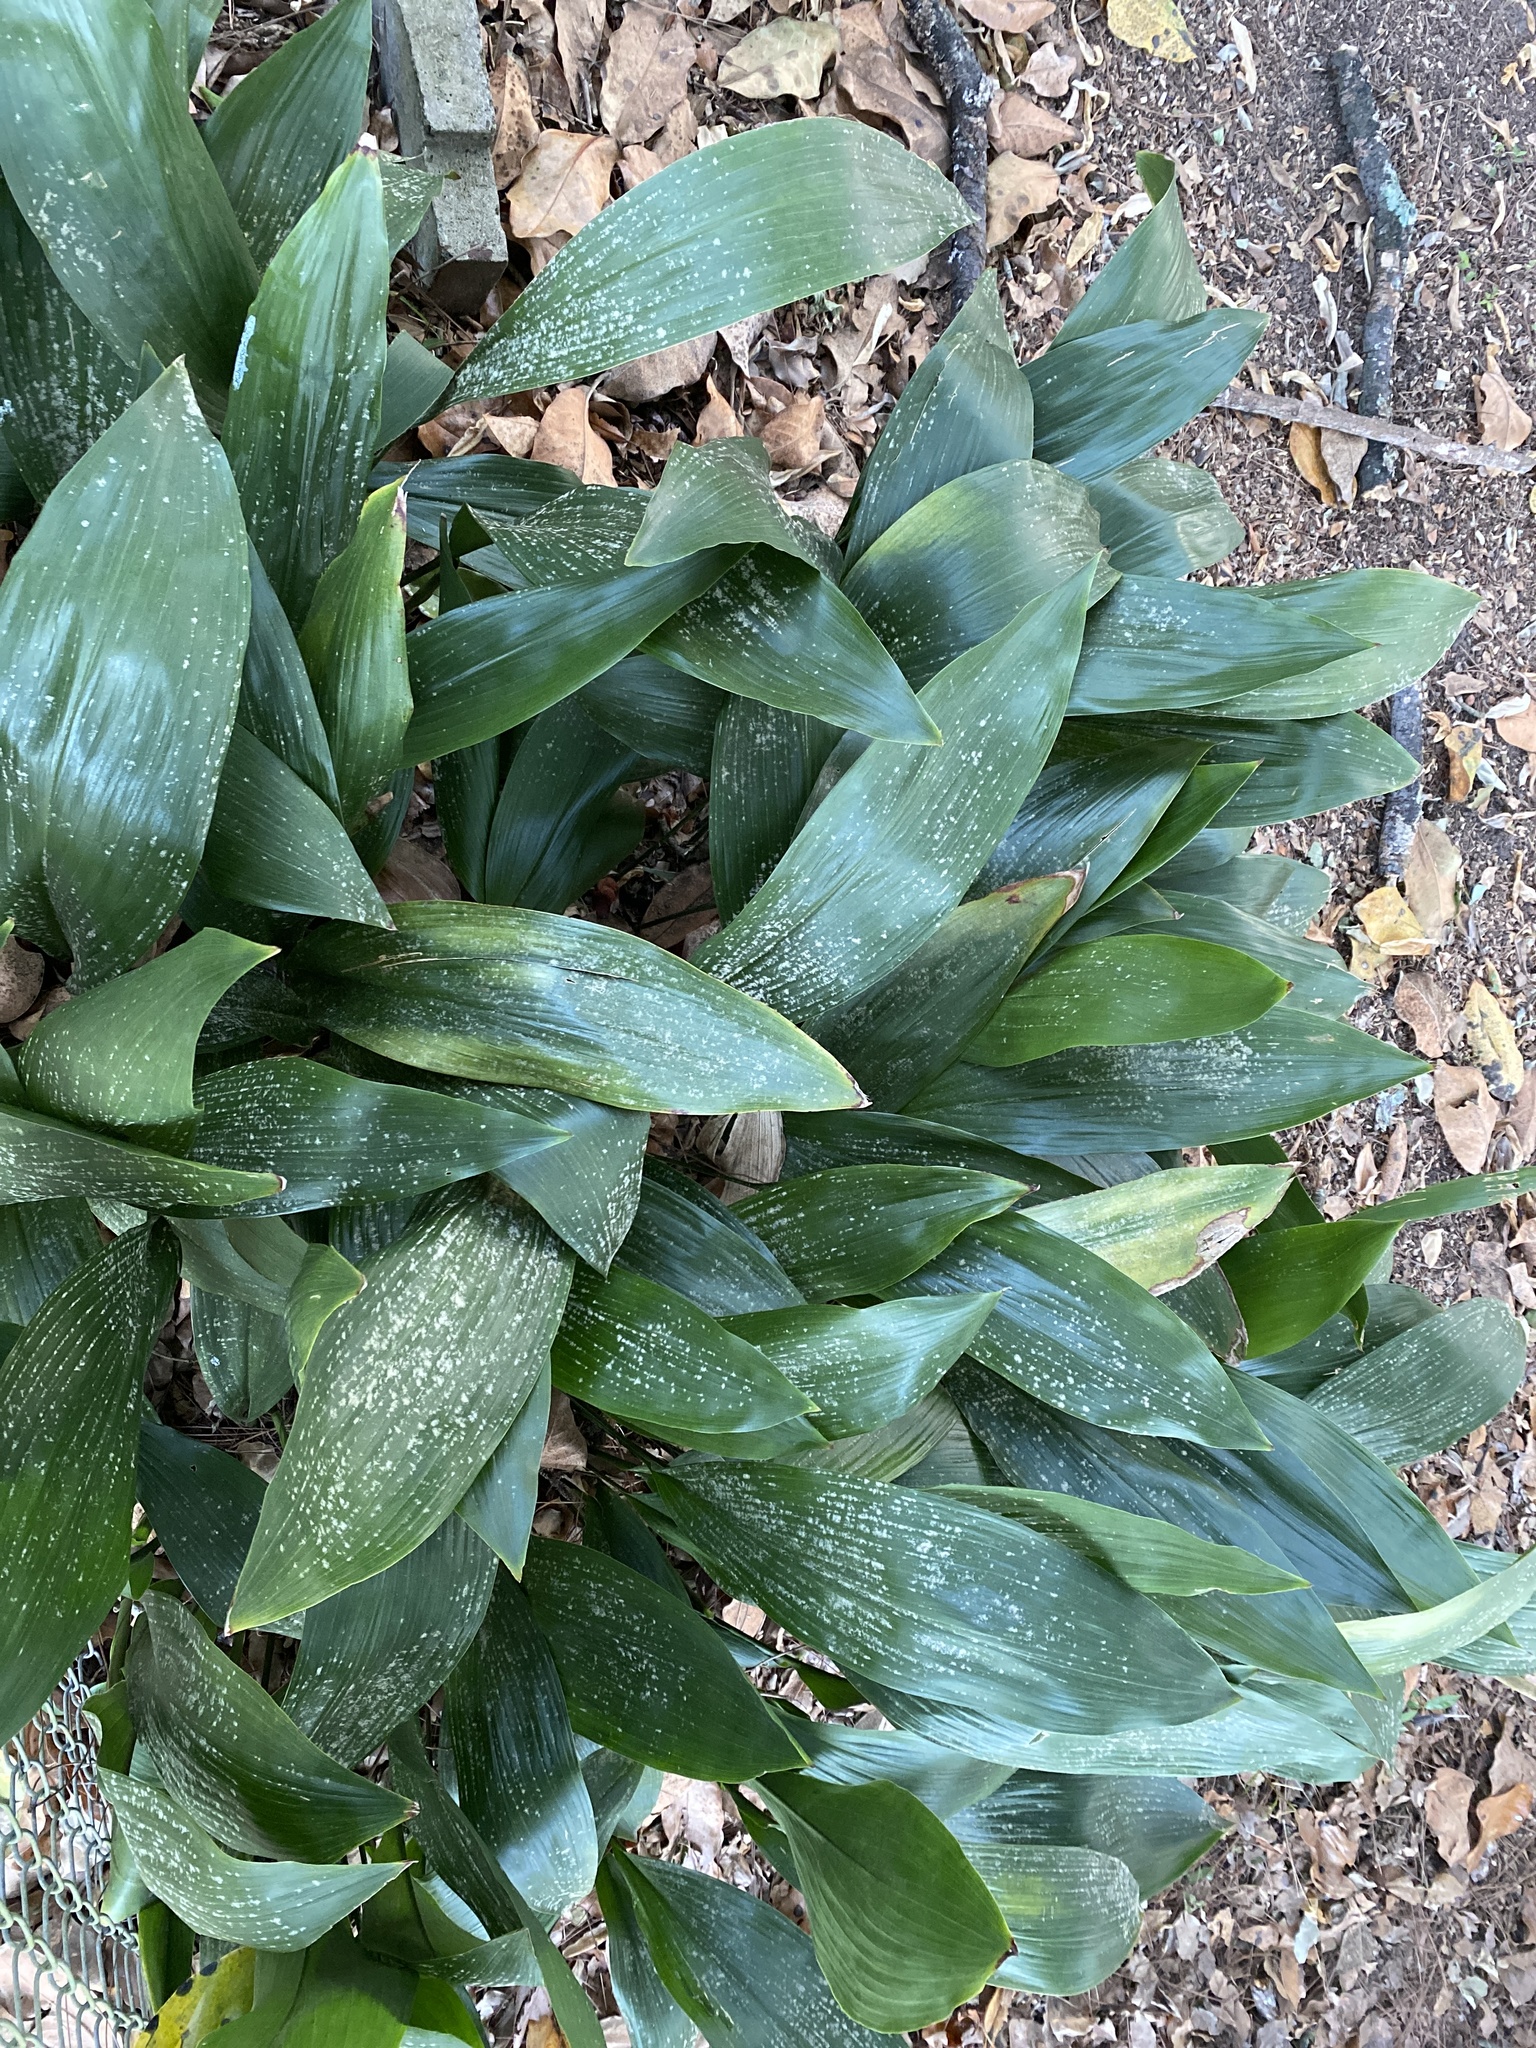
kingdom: Plantae
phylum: Tracheophyta
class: Liliopsida
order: Asparagales
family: Asparagaceae
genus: Aspidistra
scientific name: Aspidistra elatior
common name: Cast-iron-plant
